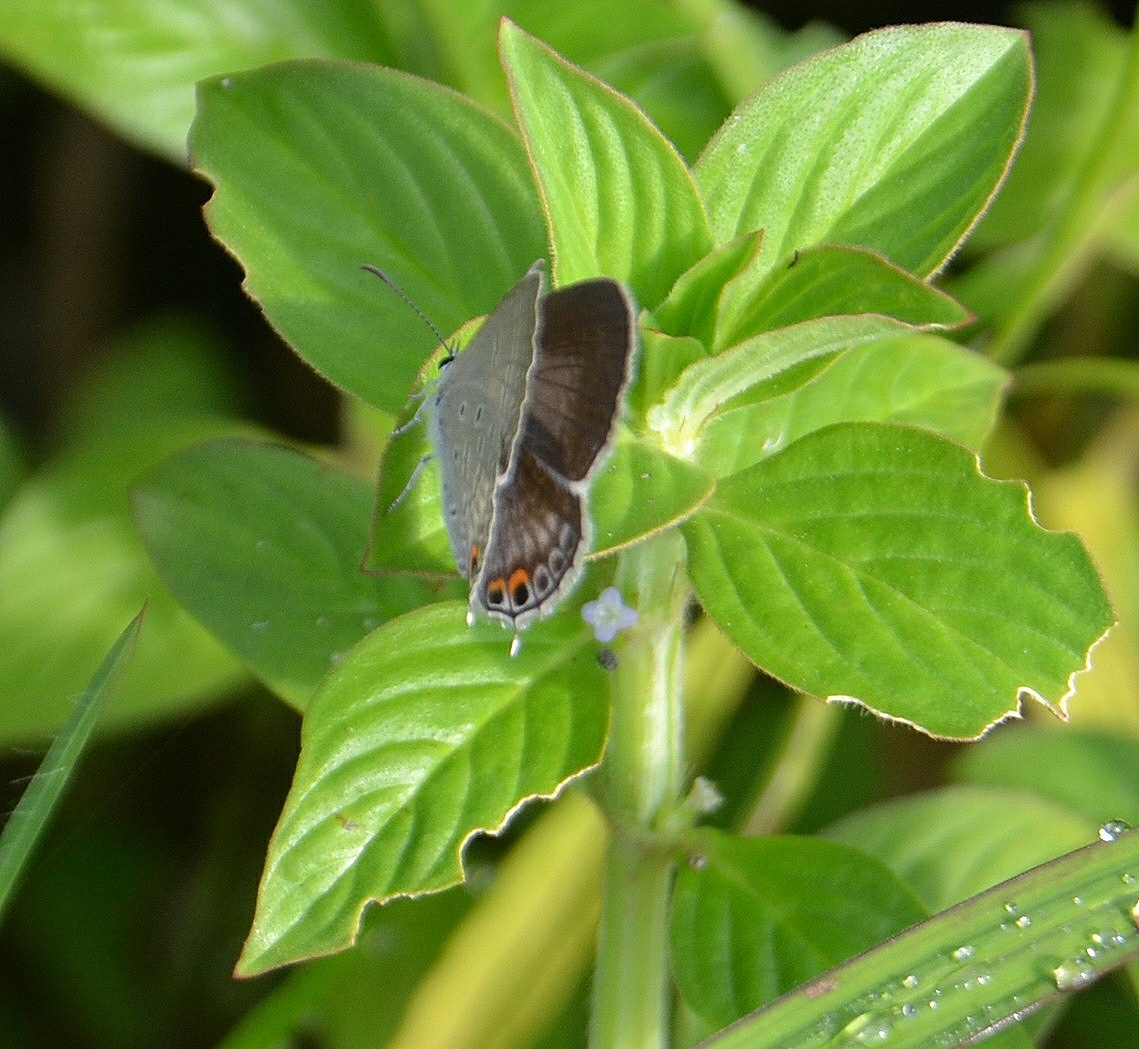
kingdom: Animalia
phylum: Arthropoda
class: Insecta
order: Lepidoptera
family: Lycaenidae
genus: Euchrysops
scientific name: Euchrysops cnejus
